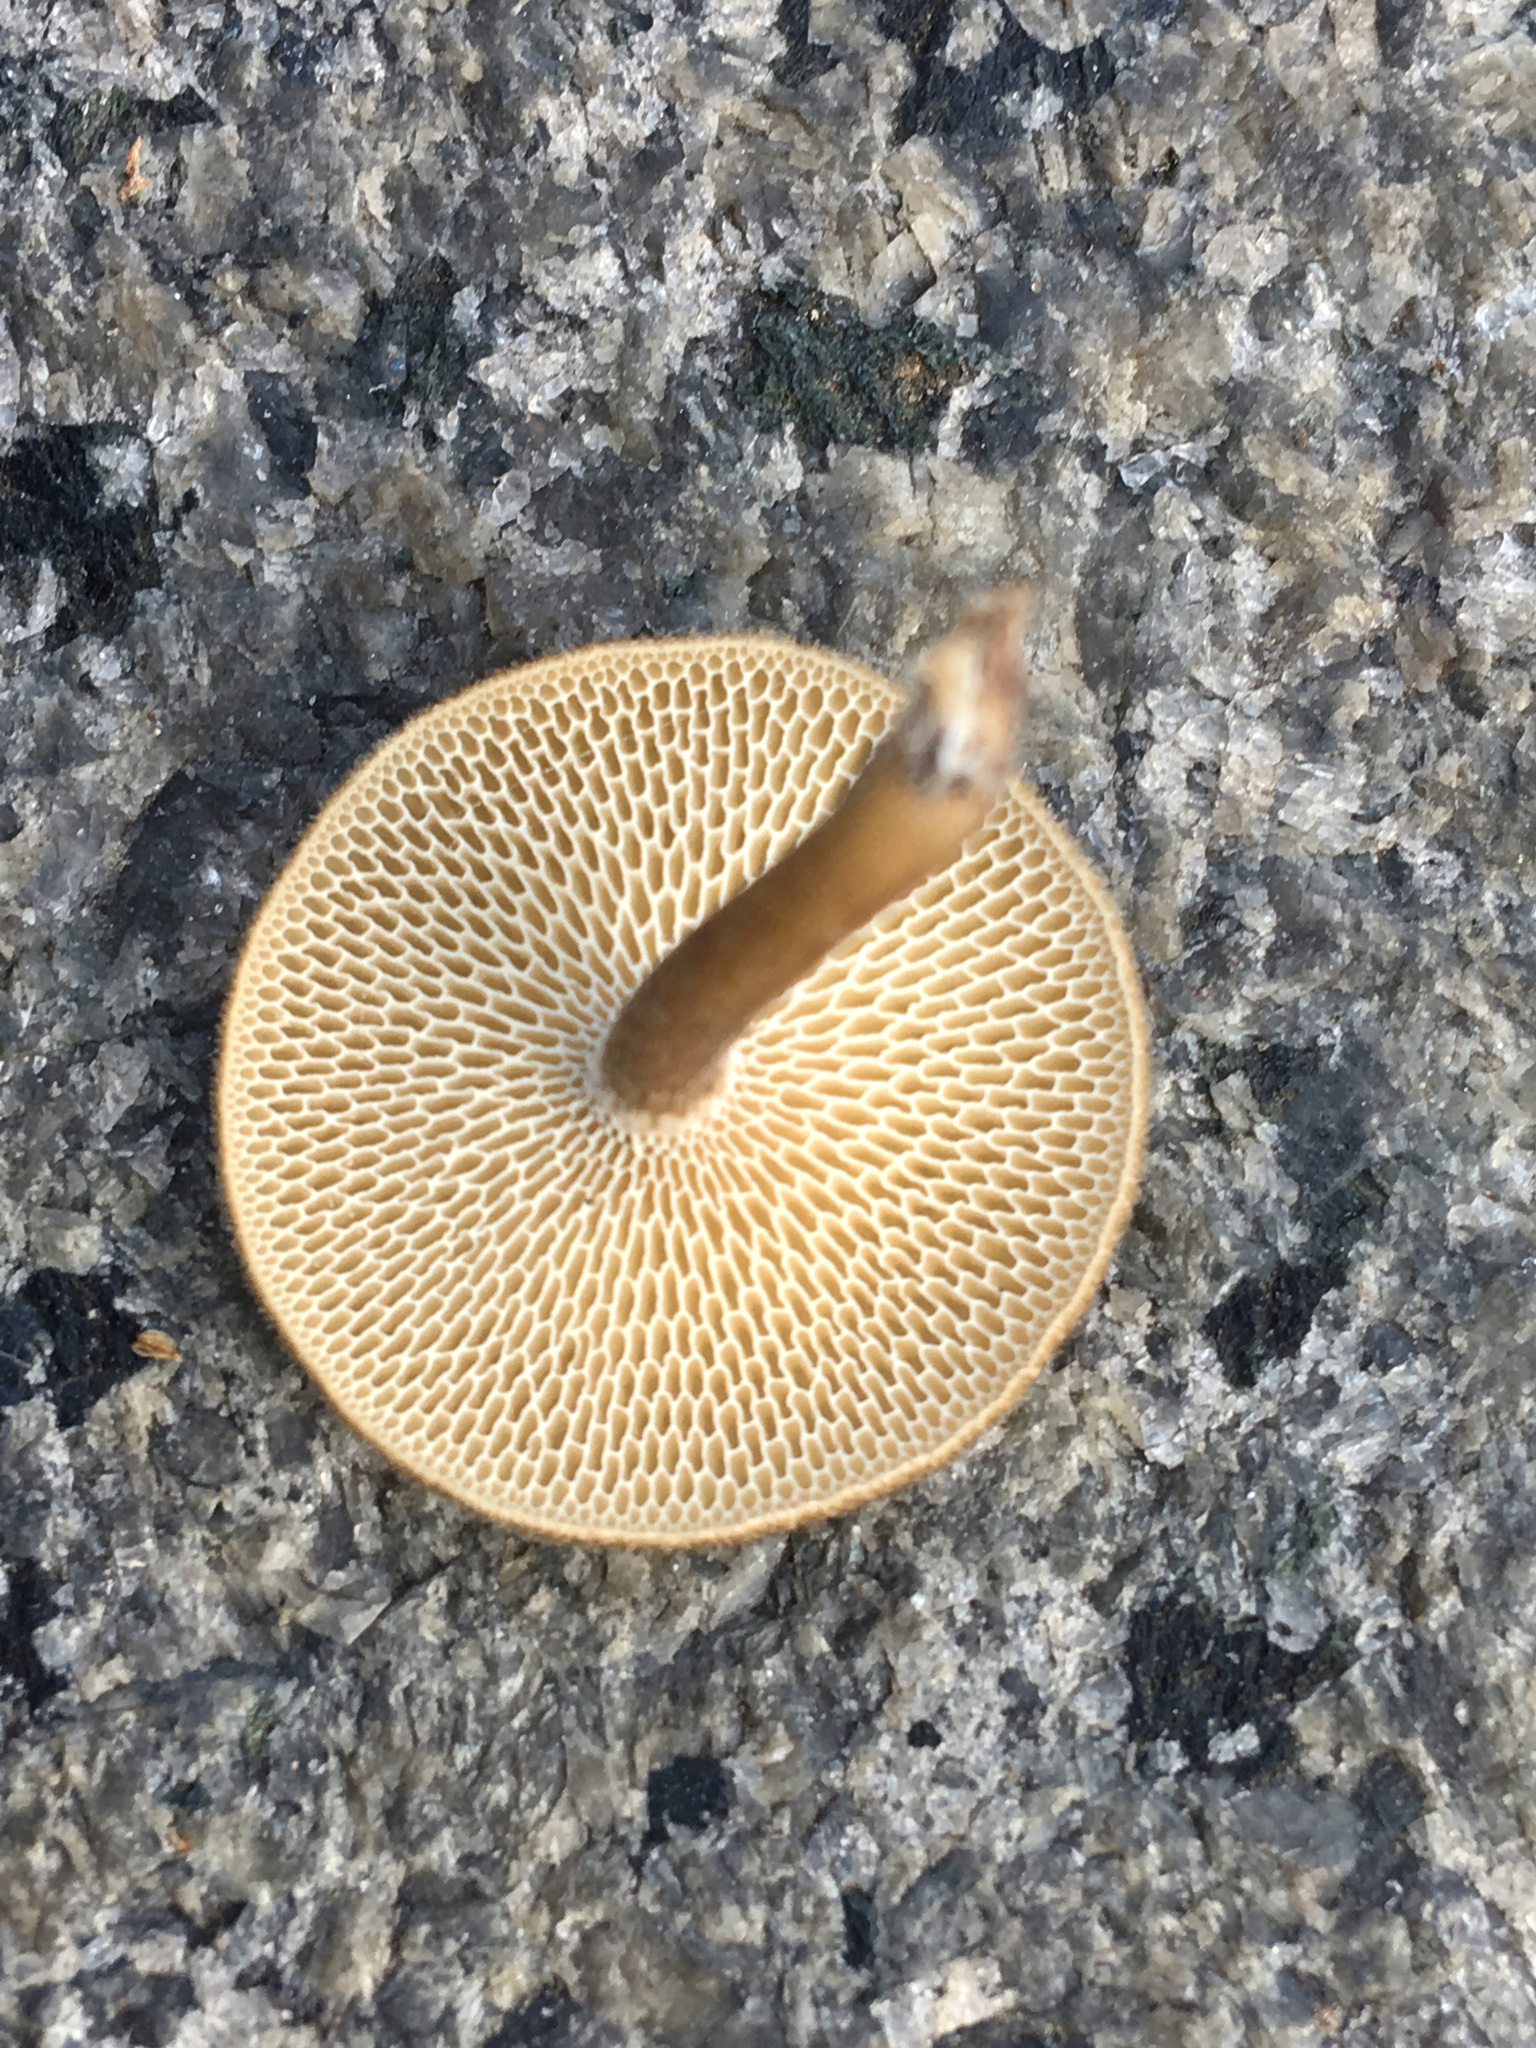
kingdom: Fungi
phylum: Basidiomycota
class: Agaricomycetes
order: Polyporales
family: Polyporaceae
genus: Lentinus
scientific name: Lentinus arcularius
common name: Spring polypore
